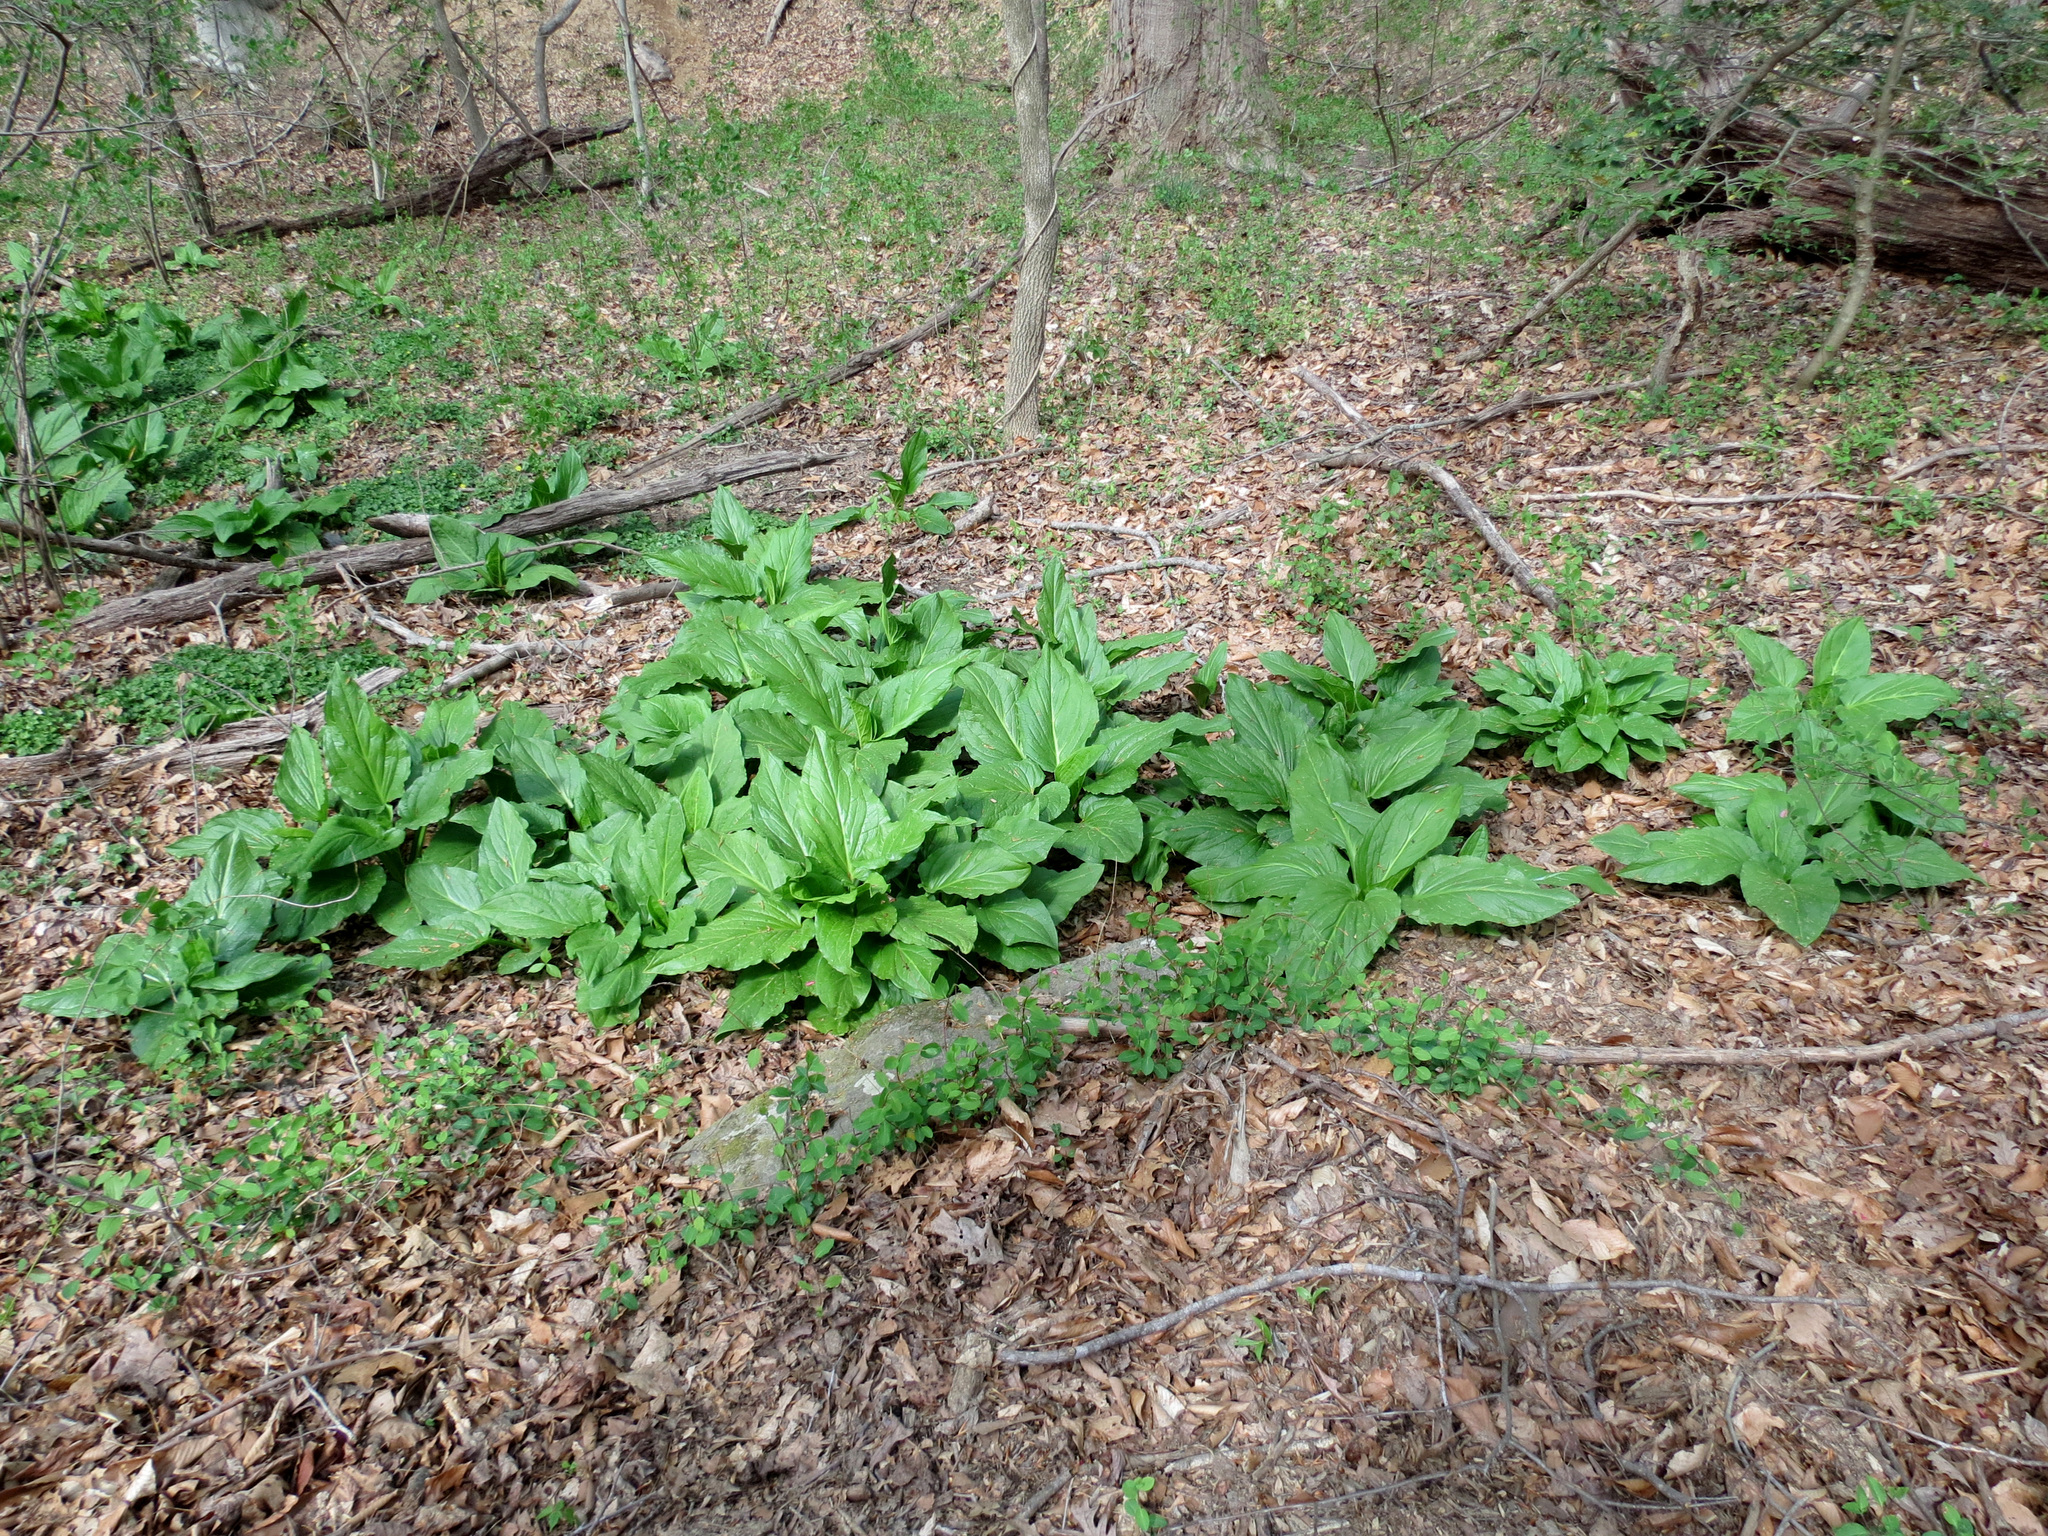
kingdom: Plantae
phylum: Tracheophyta
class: Liliopsida
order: Alismatales
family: Araceae
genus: Symplocarpus
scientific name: Symplocarpus foetidus
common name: Eastern skunk cabbage
